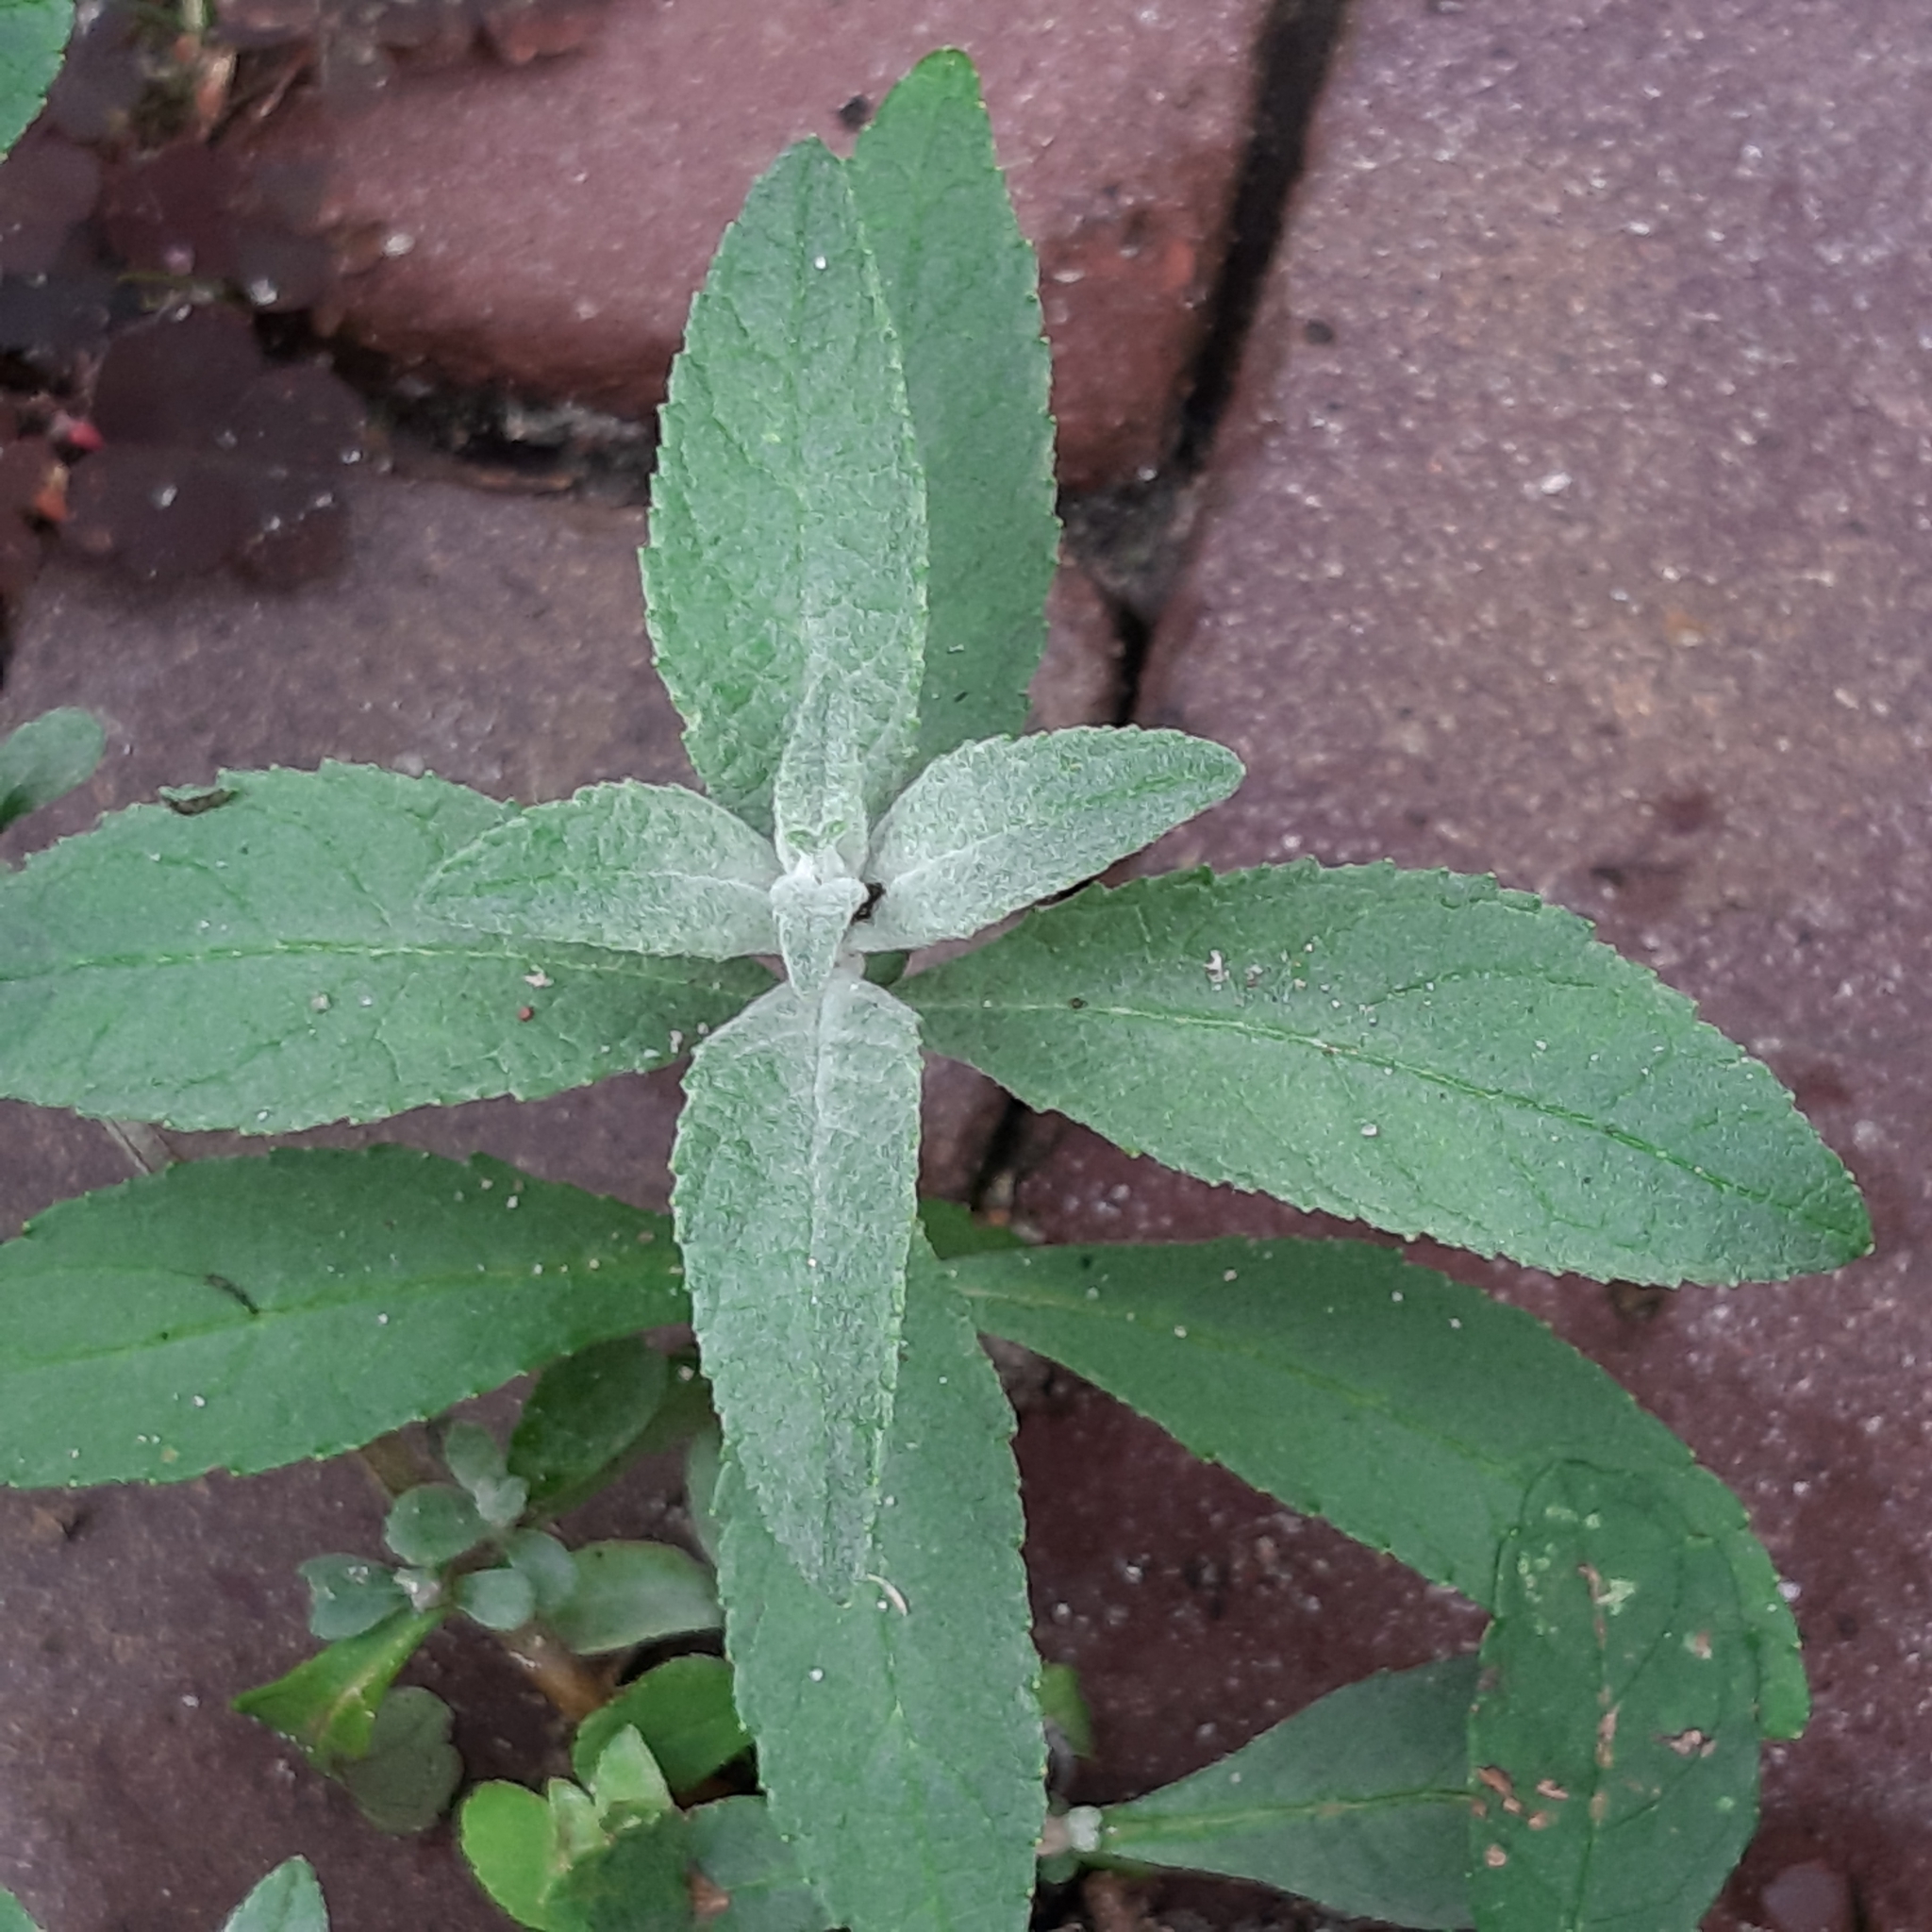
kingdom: Plantae
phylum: Tracheophyta
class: Magnoliopsida
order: Lamiales
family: Scrophulariaceae
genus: Buddleja
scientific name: Buddleja davidii
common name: Butterfly-bush
